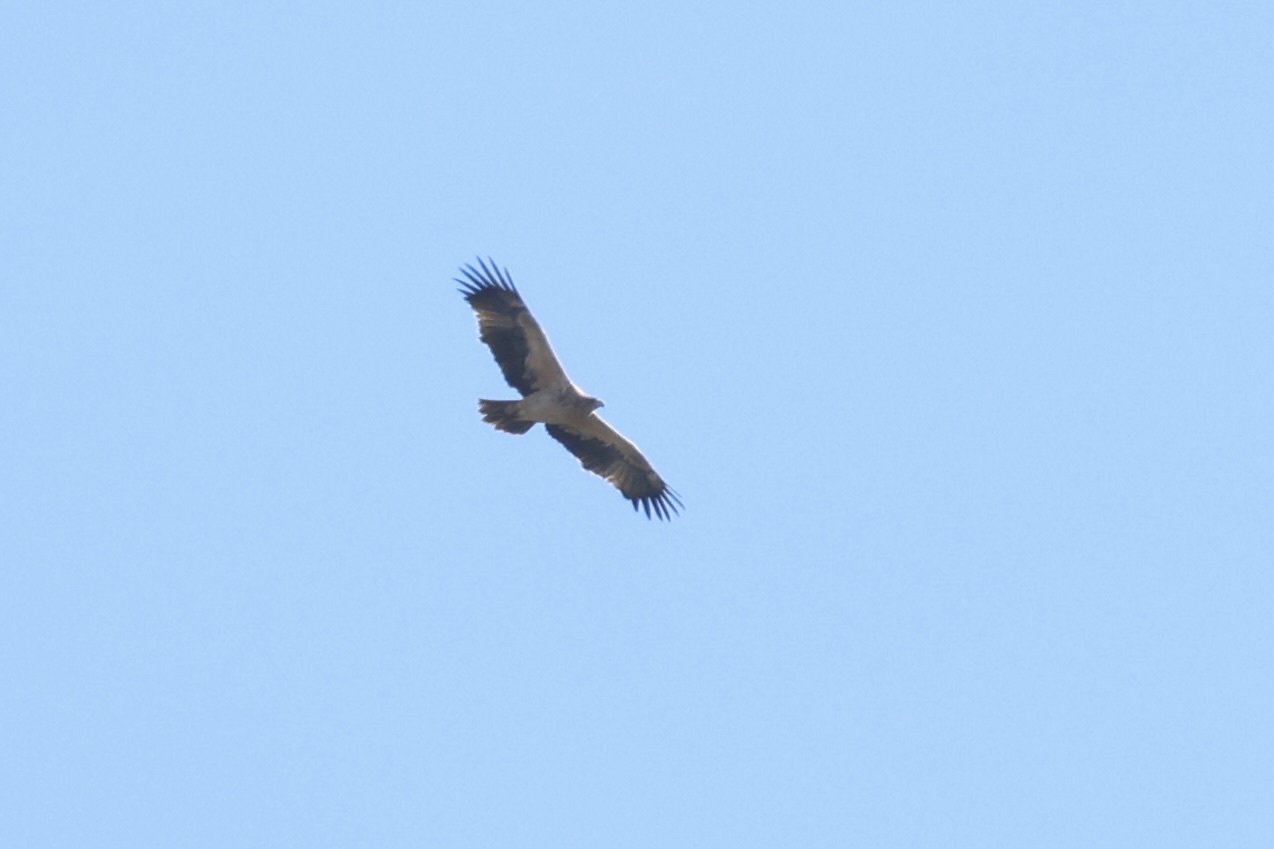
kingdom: Animalia
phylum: Chordata
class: Aves
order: Accipitriformes
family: Accipitridae
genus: Aquila
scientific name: Aquila adalberti
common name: Spanish imperial eagle
